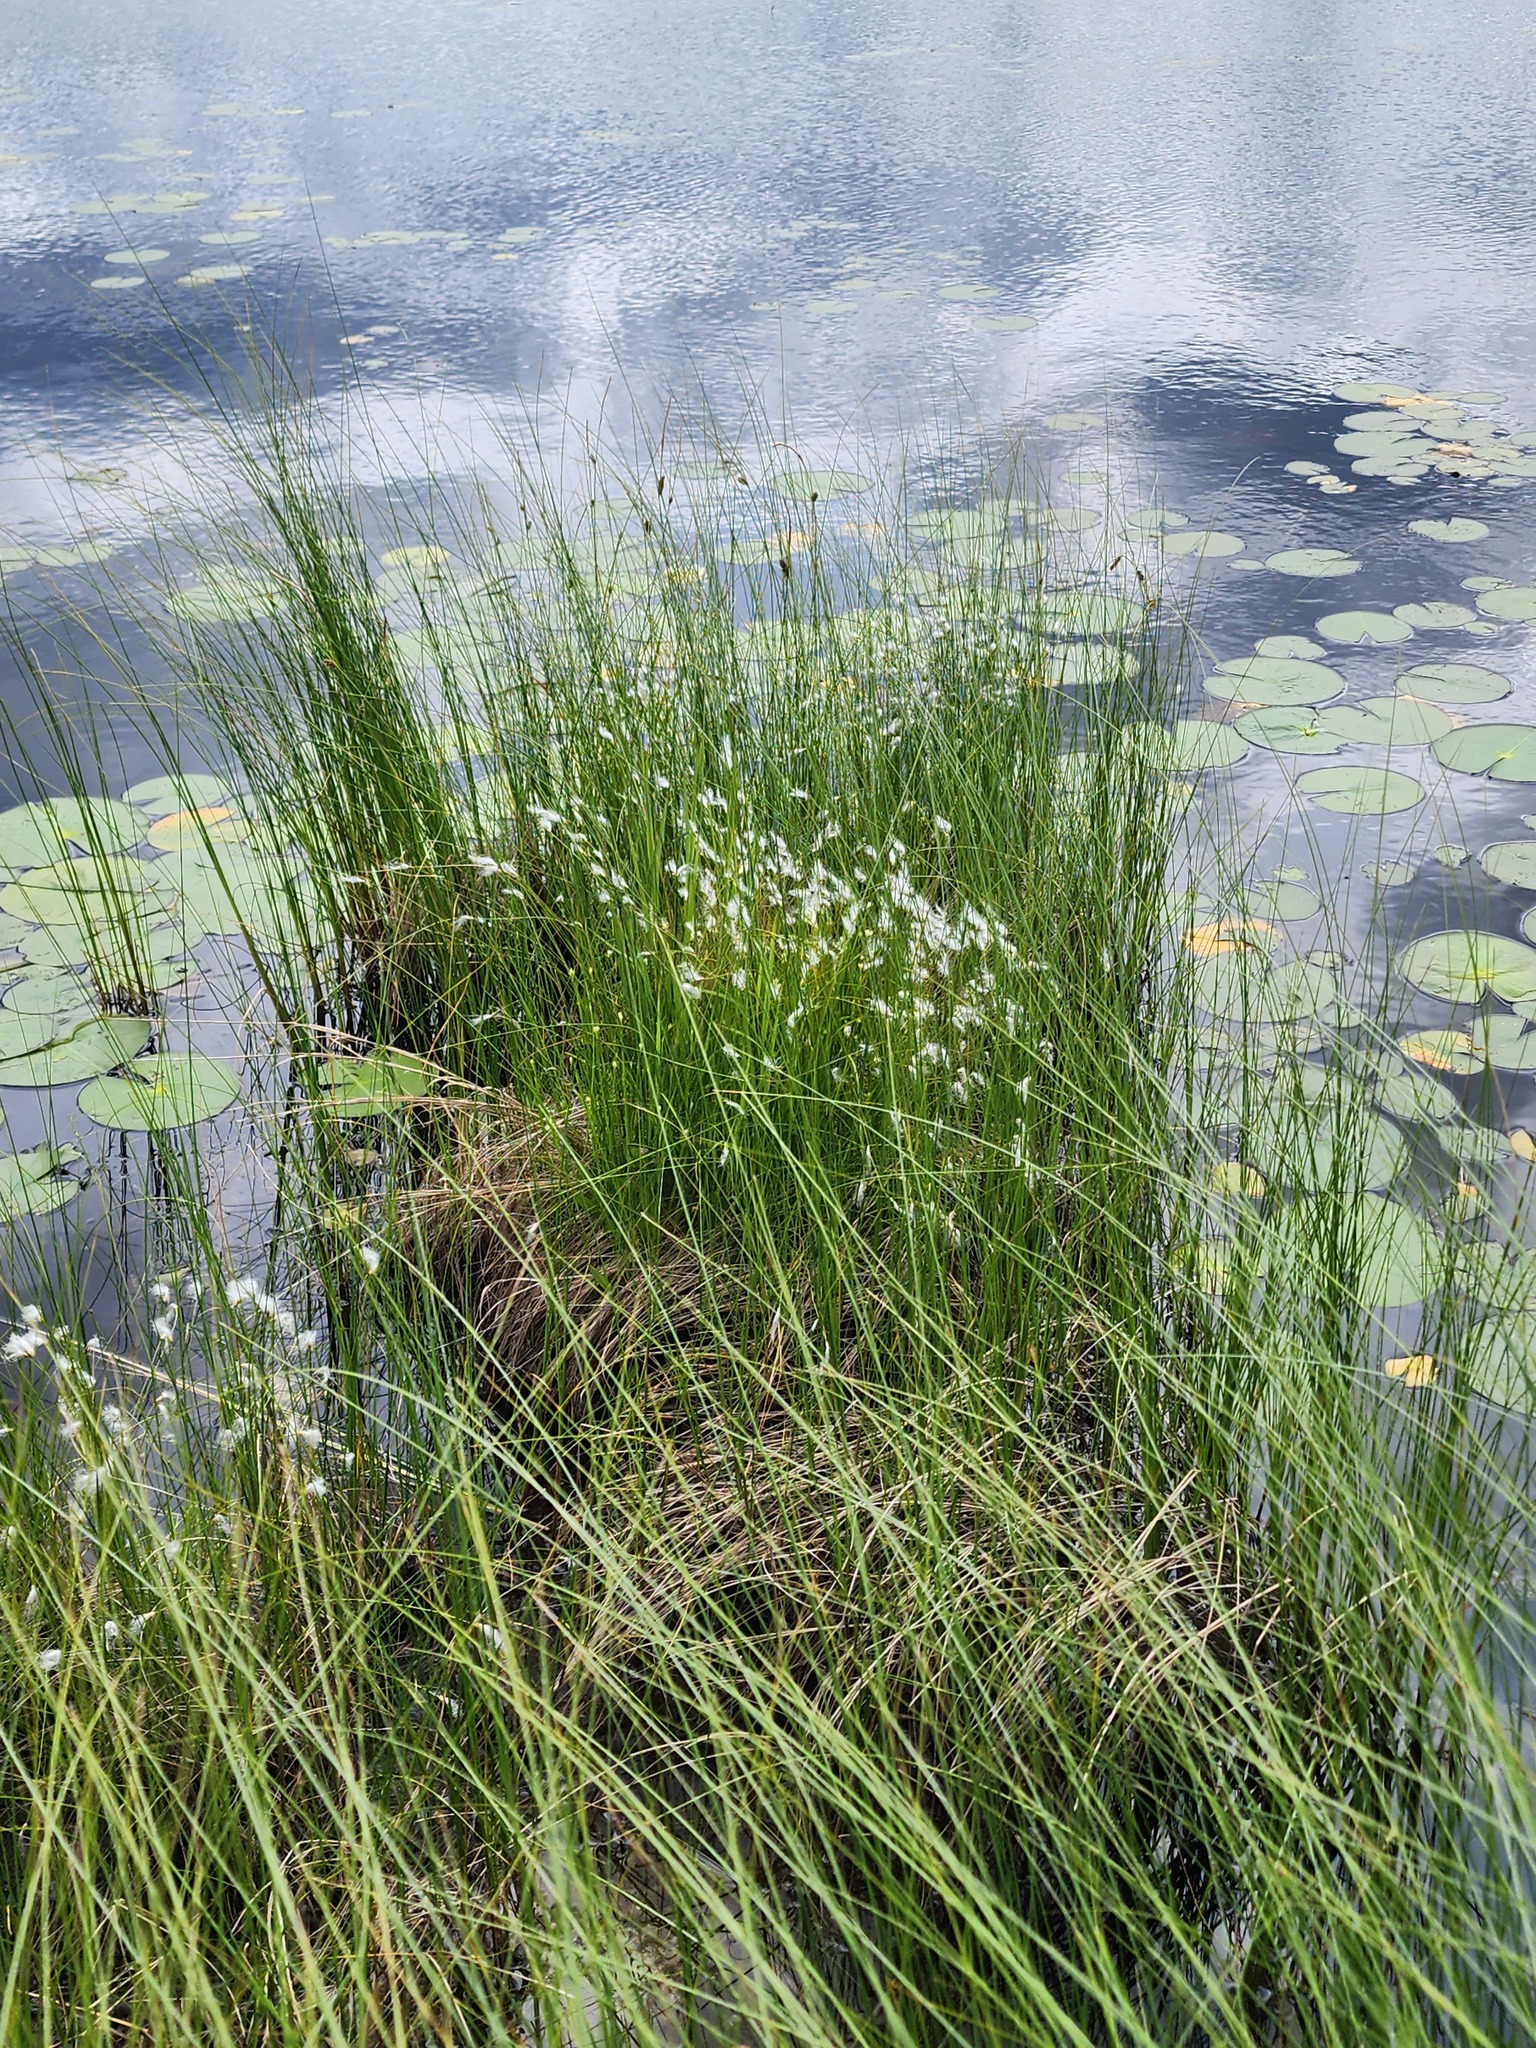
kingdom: Plantae
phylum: Tracheophyta
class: Liliopsida
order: Poales
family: Cyperaceae
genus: Trichophorum
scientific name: Trichophorum alpinum
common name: Alpine bulrush
